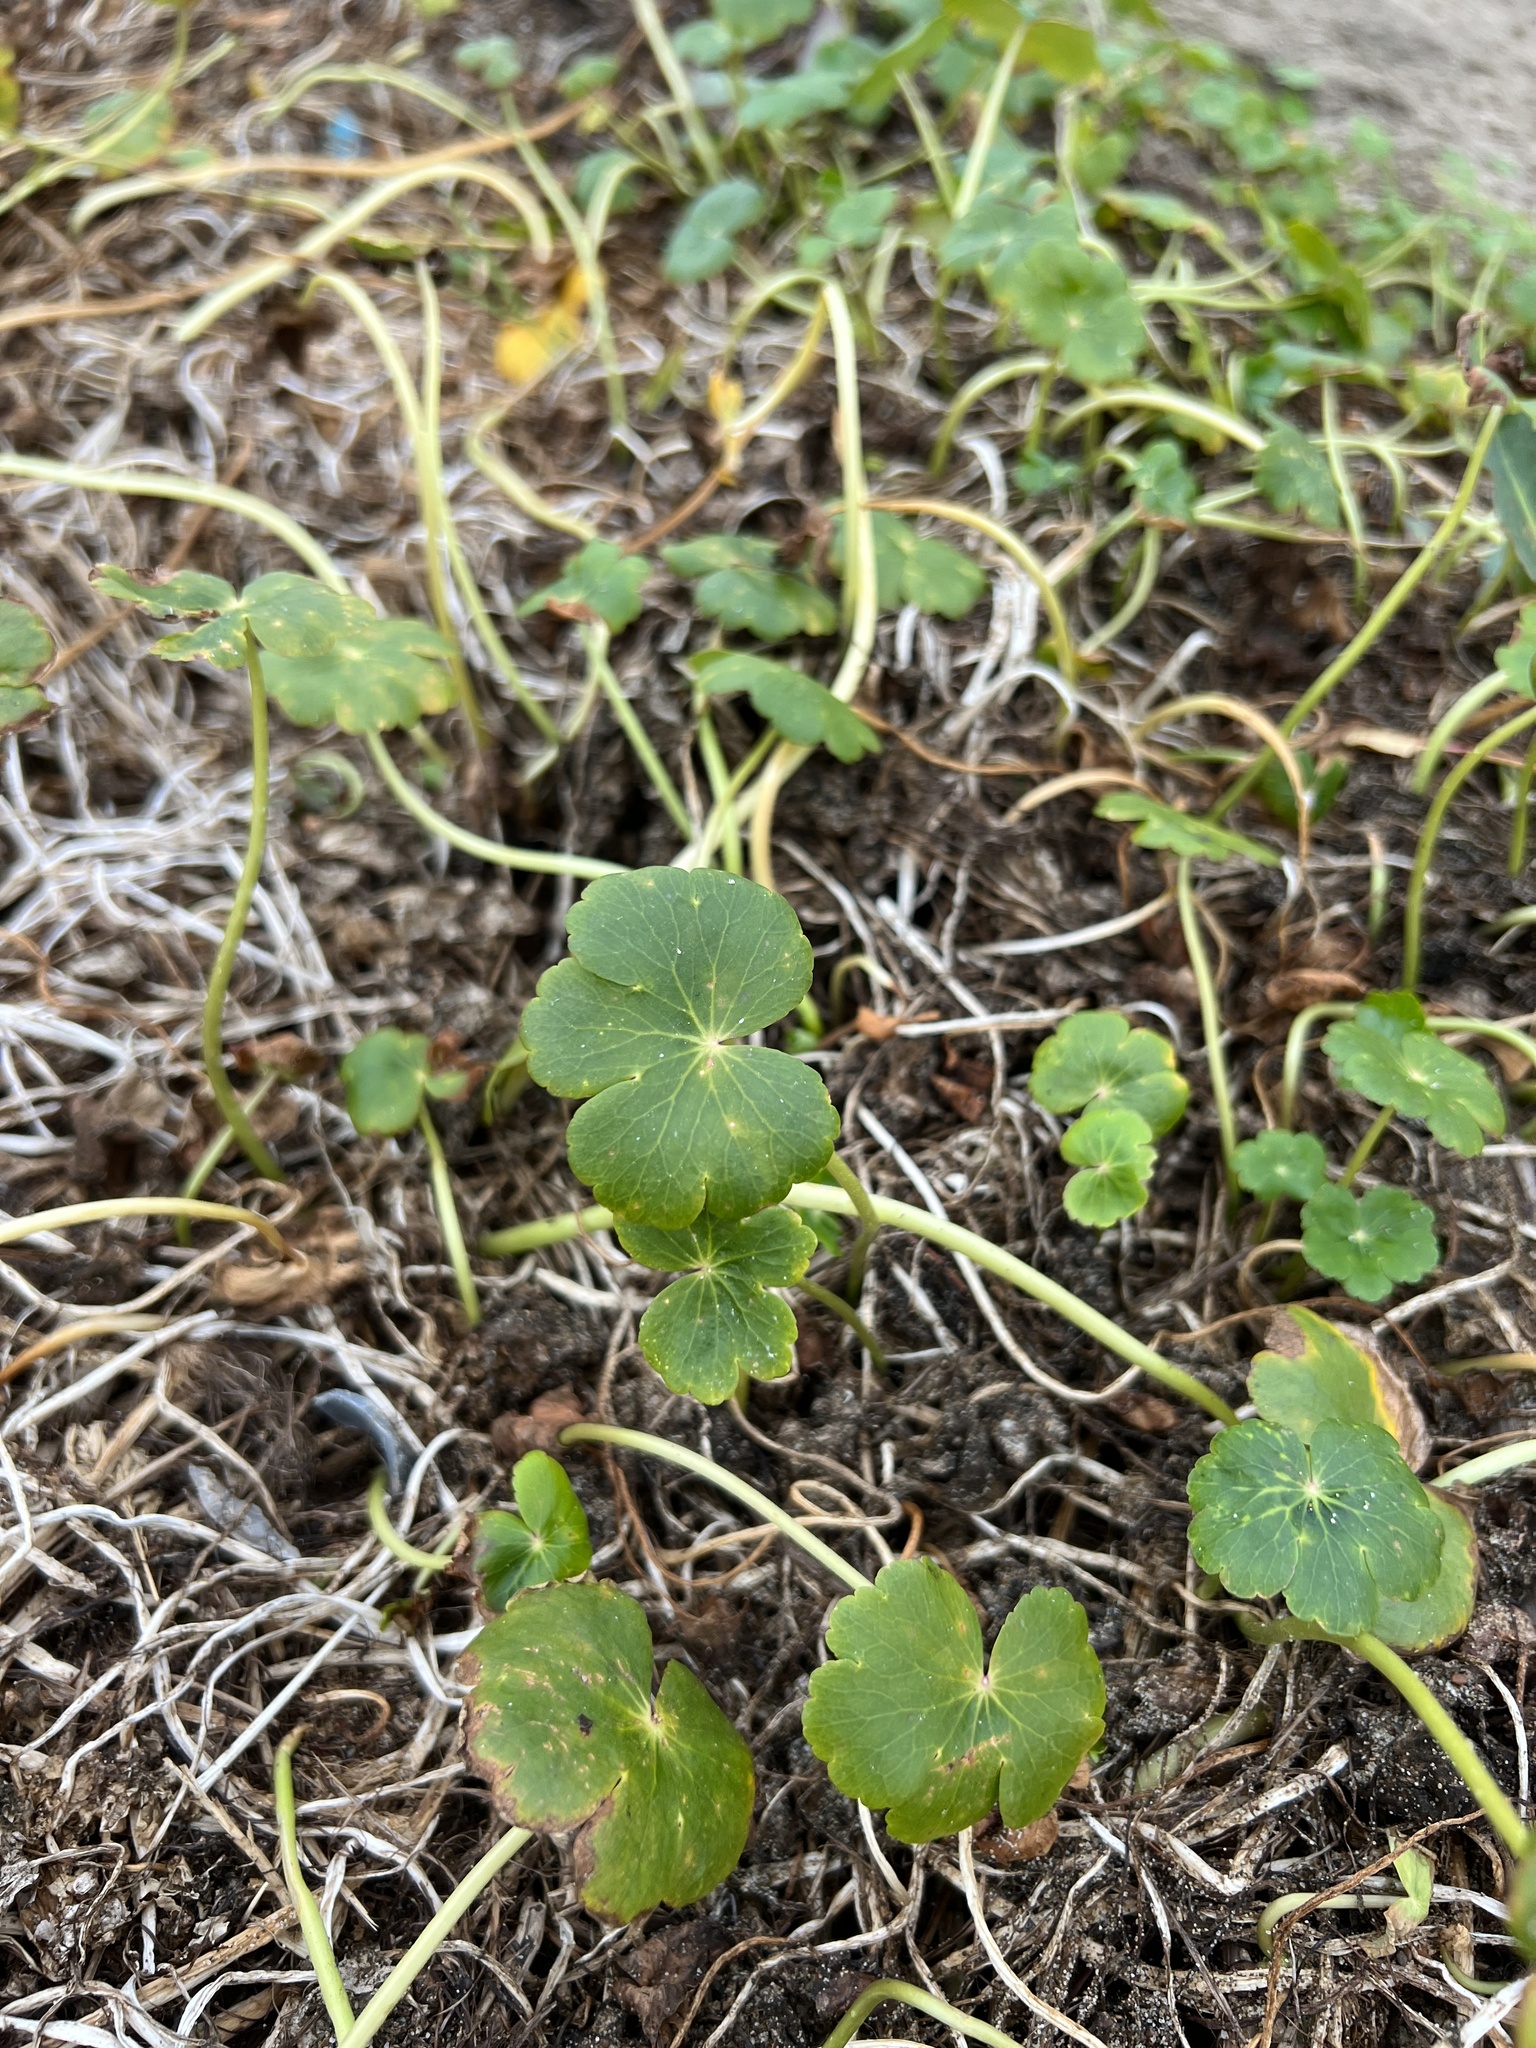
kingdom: Plantae
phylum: Tracheophyta
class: Magnoliopsida
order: Apiales
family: Araliaceae
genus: Hydrocotyle
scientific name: Hydrocotyle ranunculoides
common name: Floating pennywort
